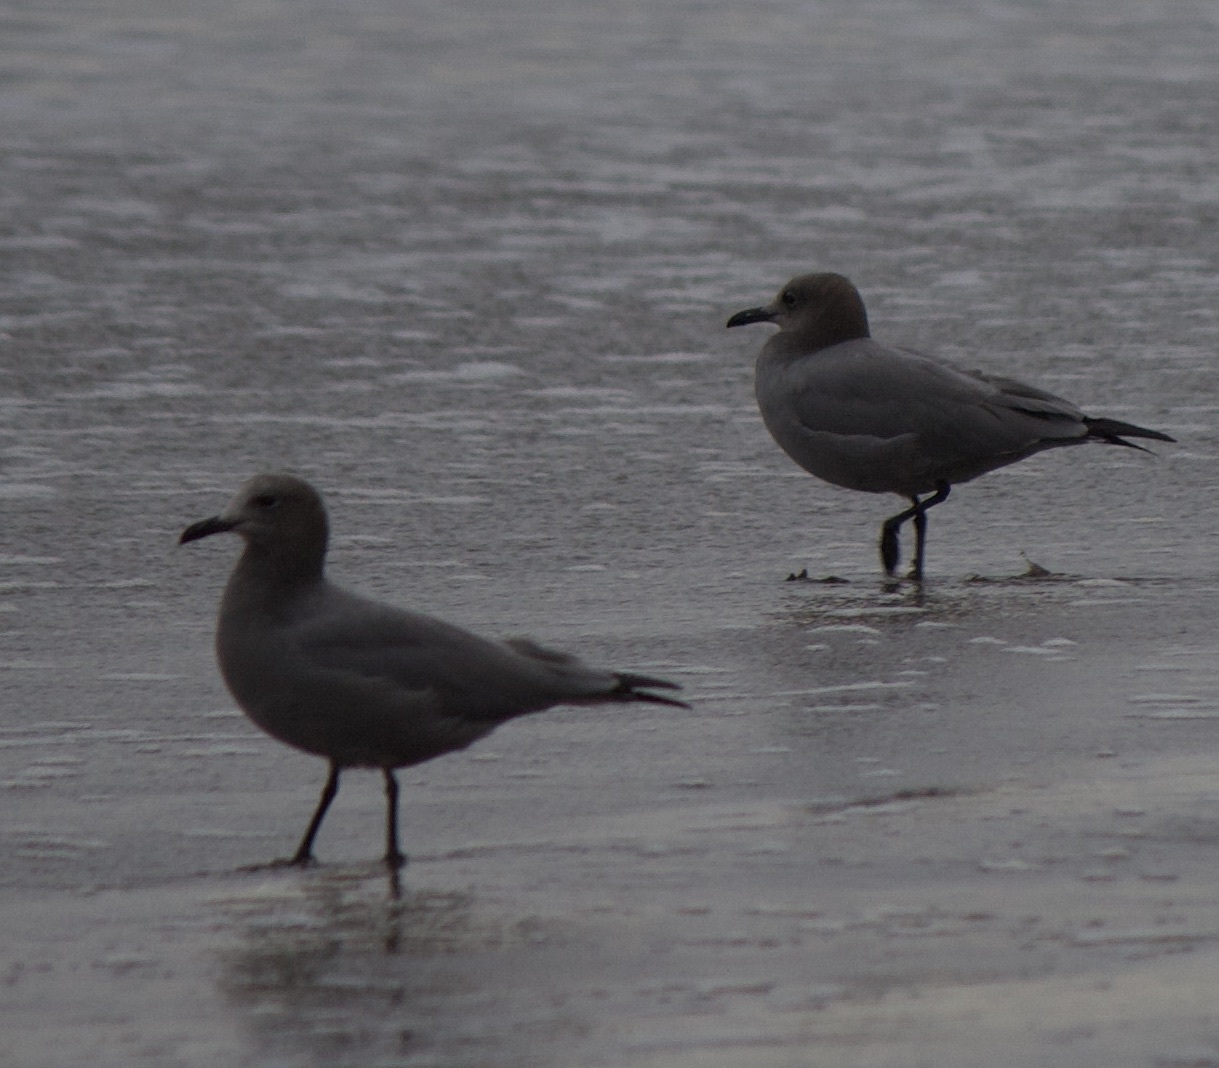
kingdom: Animalia
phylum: Chordata
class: Aves
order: Charadriiformes
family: Laridae
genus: Leucophaeus
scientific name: Leucophaeus modestus
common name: Gray gull
